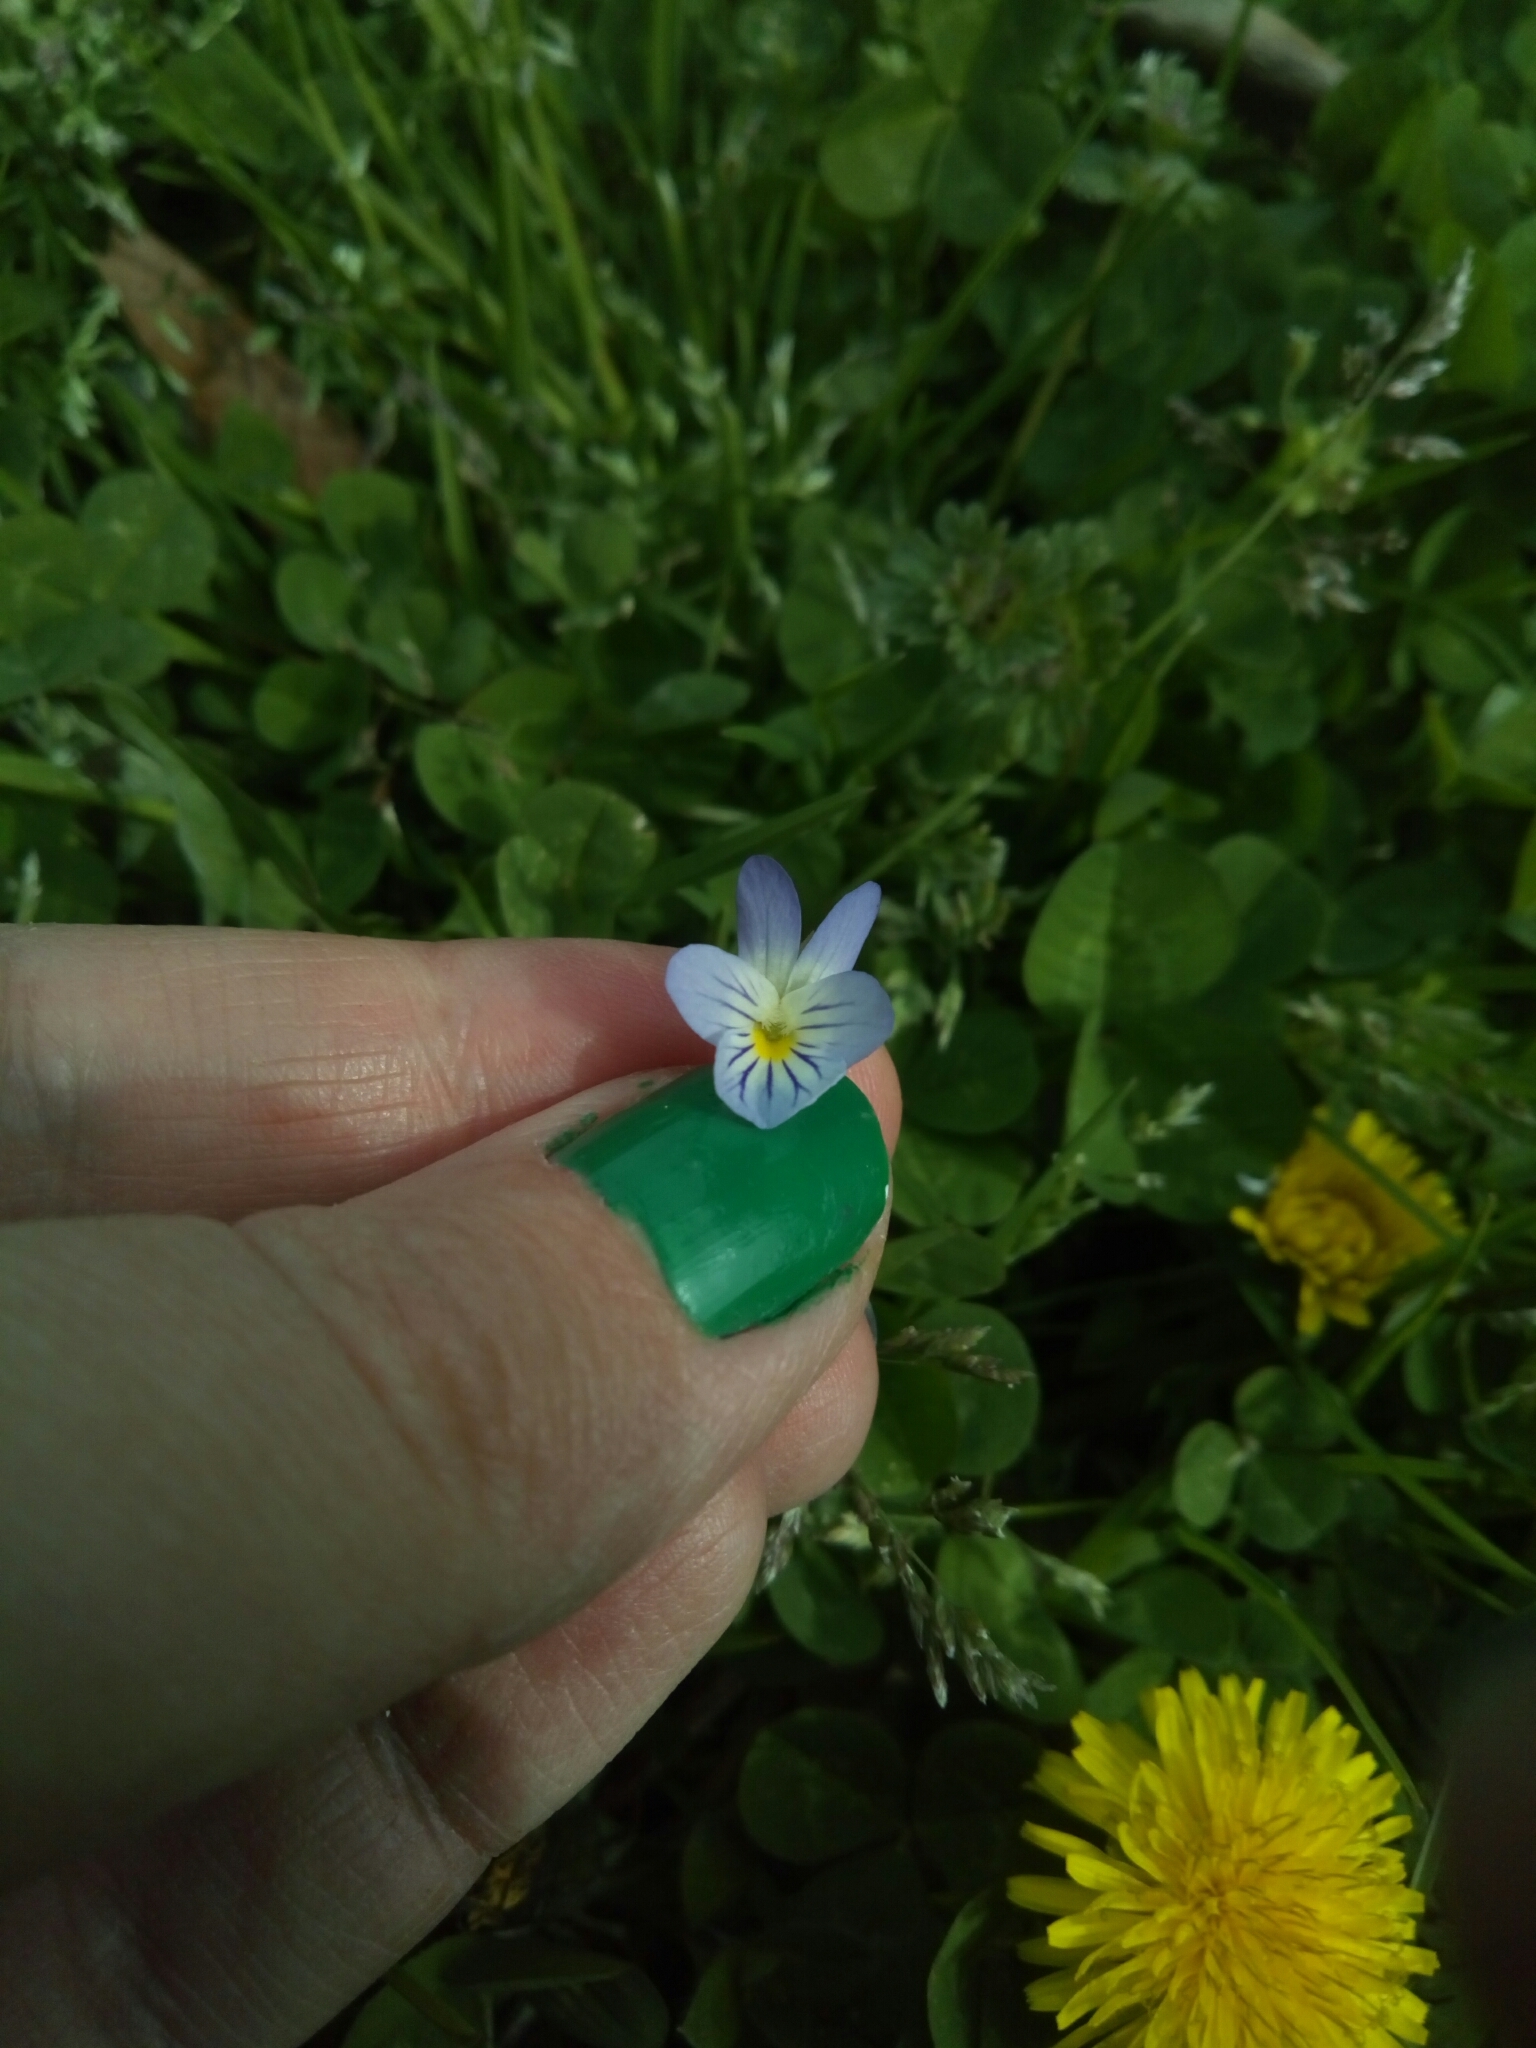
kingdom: Plantae
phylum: Tracheophyta
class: Magnoliopsida
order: Malpighiales
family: Violaceae
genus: Viola
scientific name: Viola rafinesquei
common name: American field pansy
